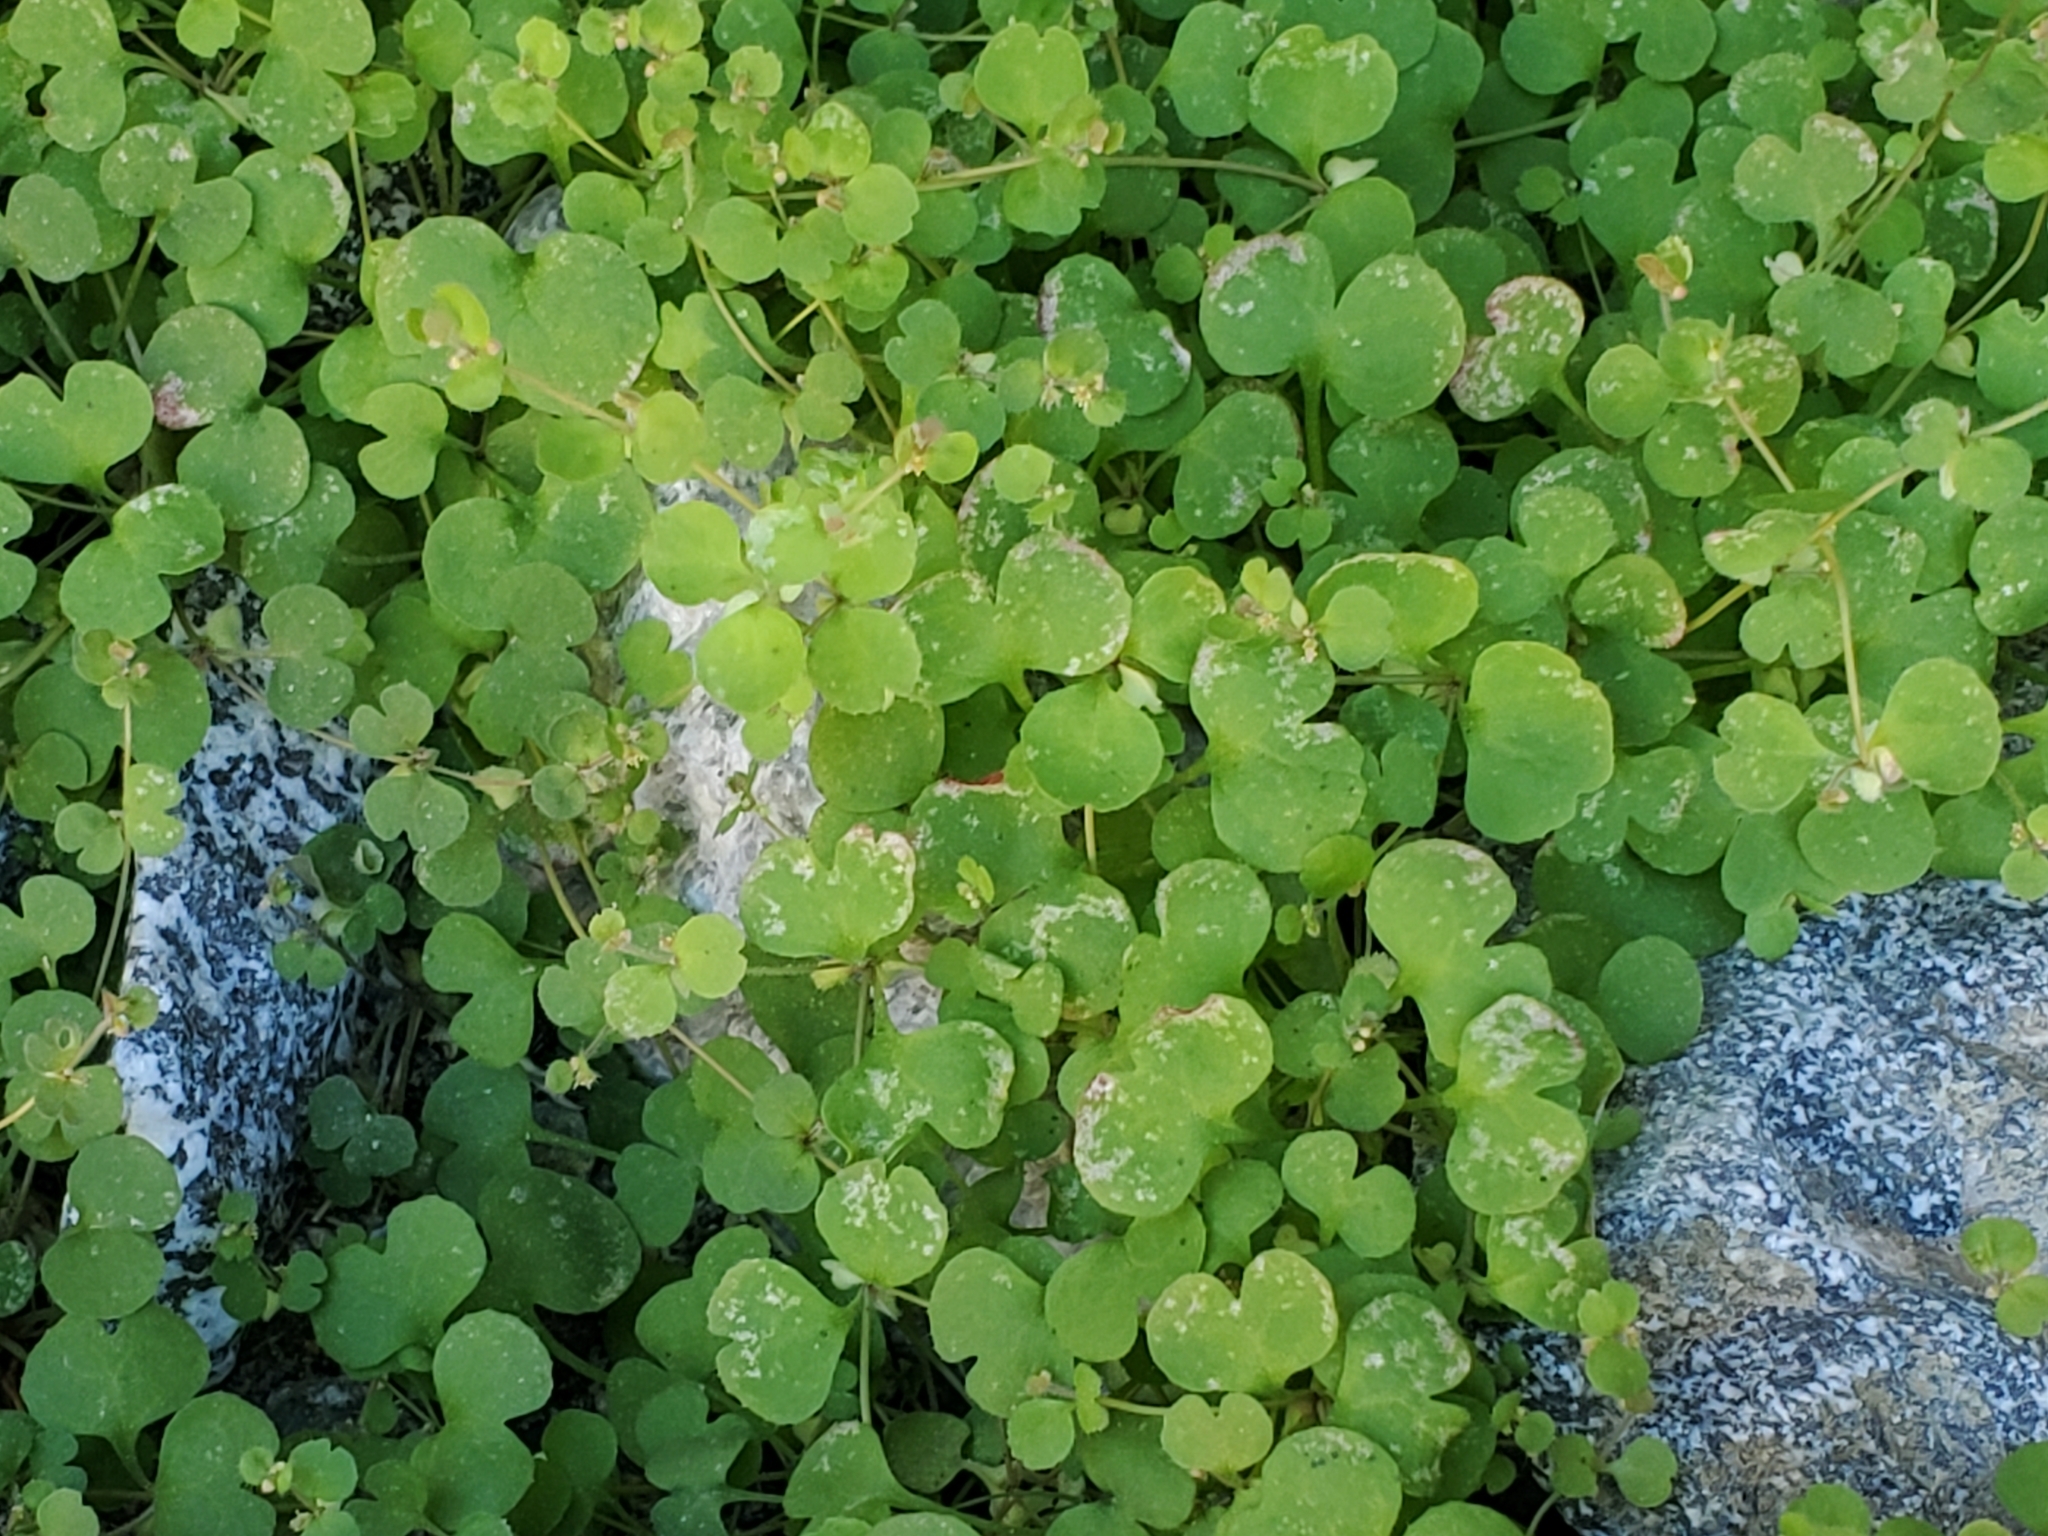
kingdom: Plantae
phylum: Tracheophyta
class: Magnoliopsida
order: Caryophyllales
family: Polygonaceae
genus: Pterostegia
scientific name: Pterostegia drymarioides
